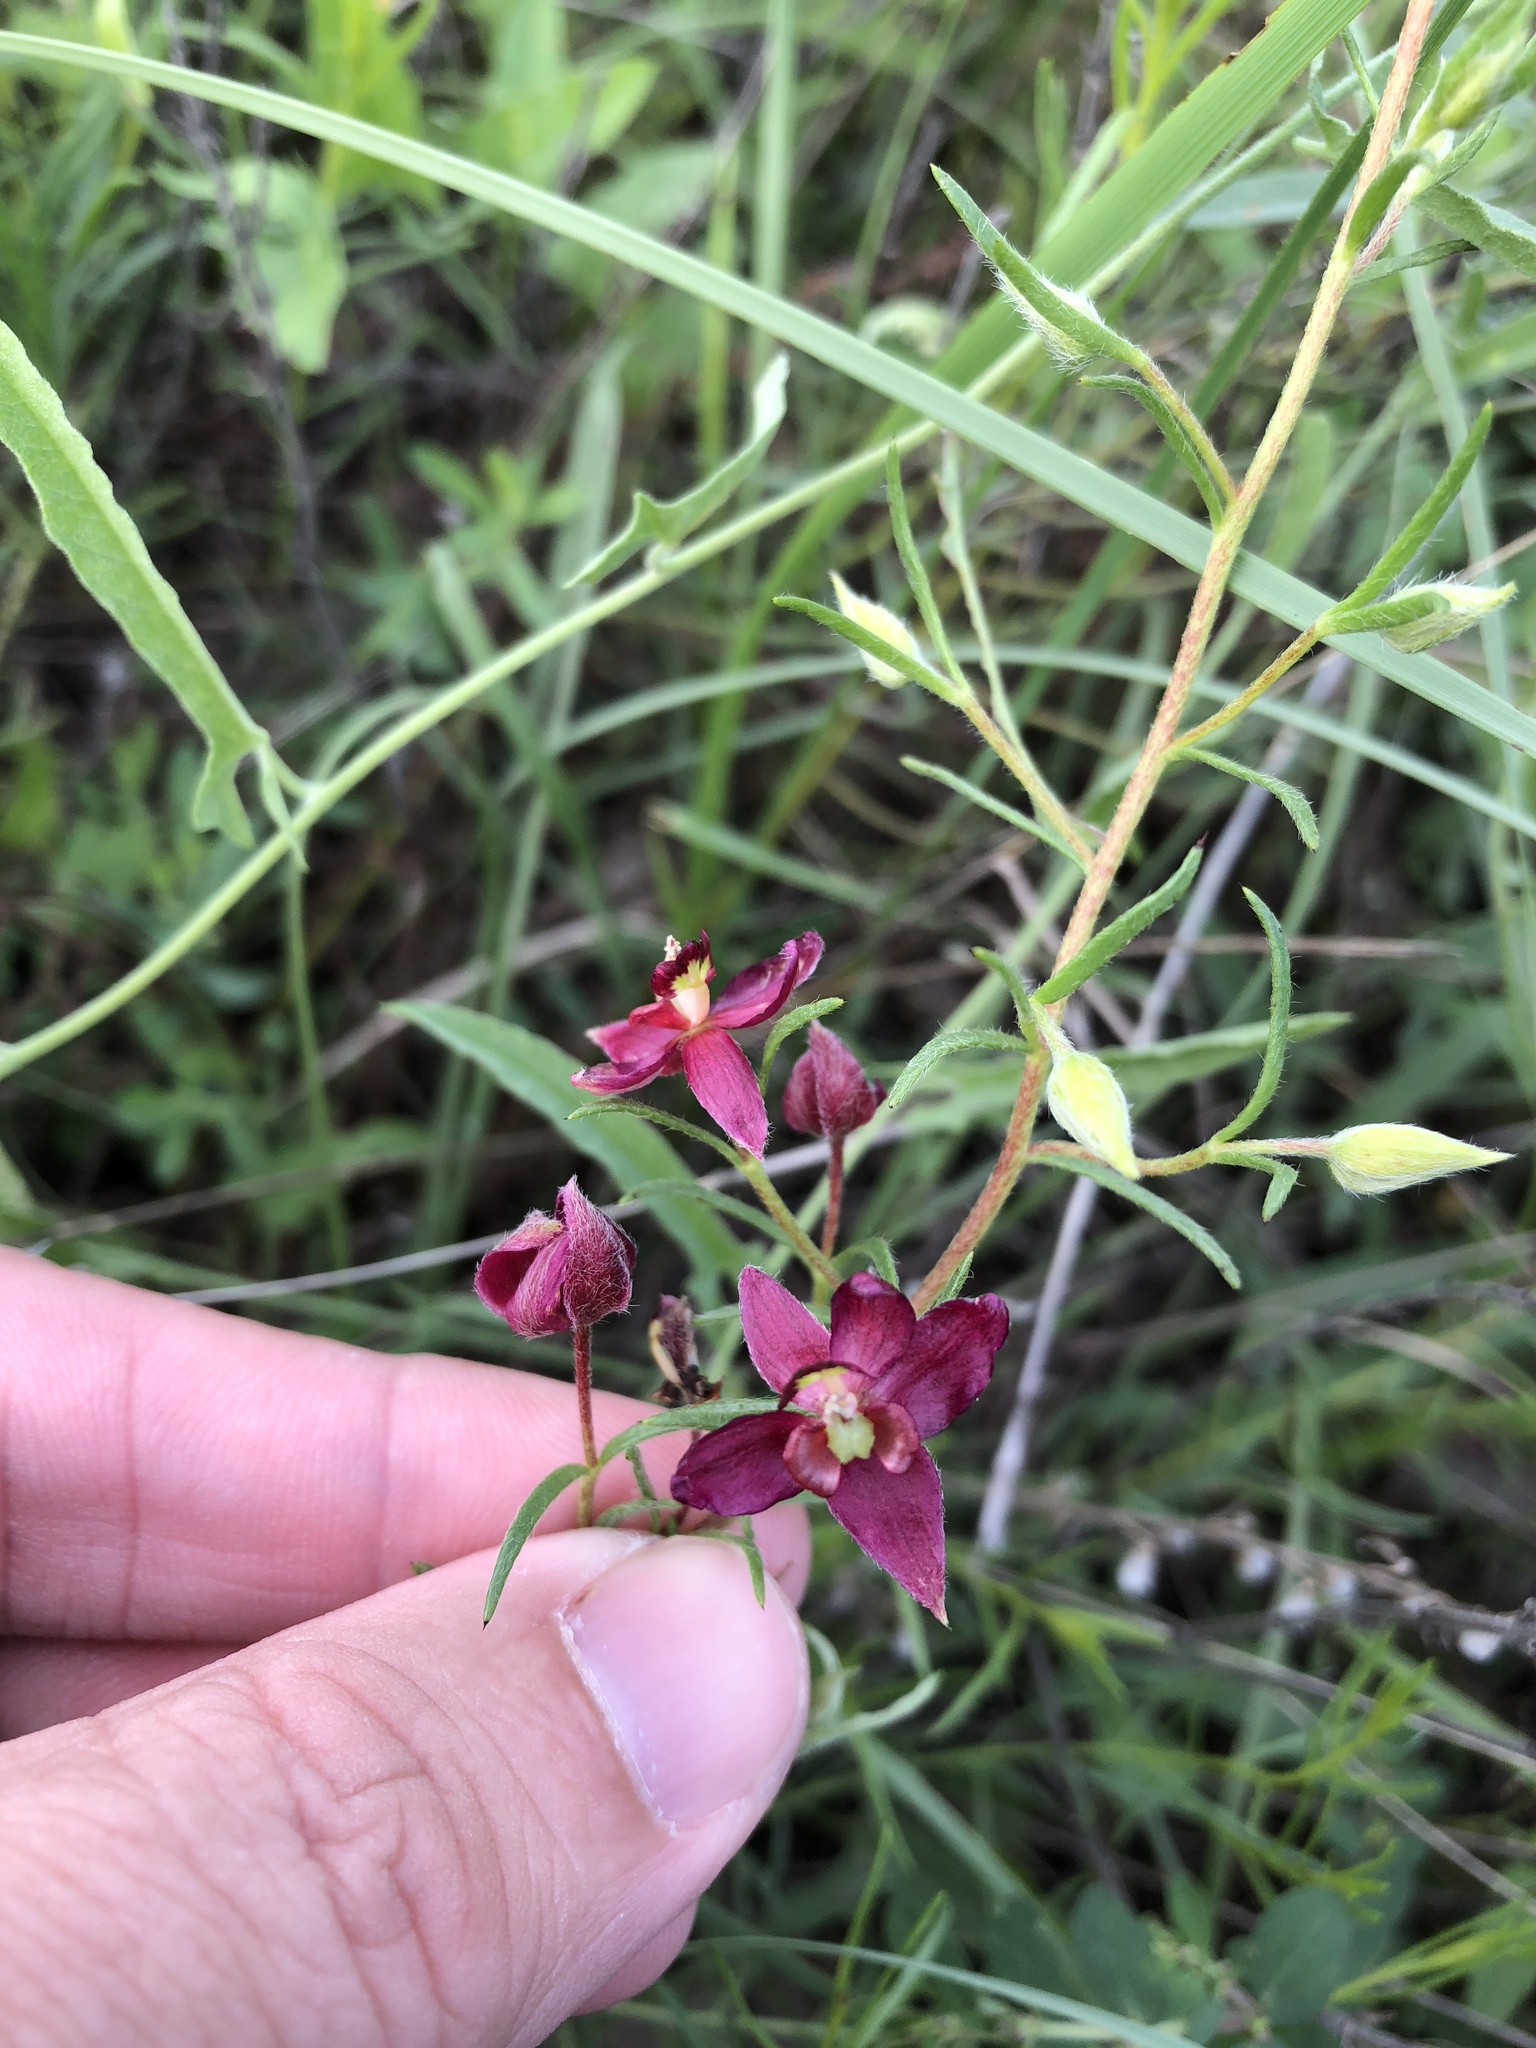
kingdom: Plantae
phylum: Tracheophyta
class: Magnoliopsida
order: Zygophyllales
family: Krameriaceae
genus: Krameria
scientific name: Krameria lanceolata
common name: Ratany
